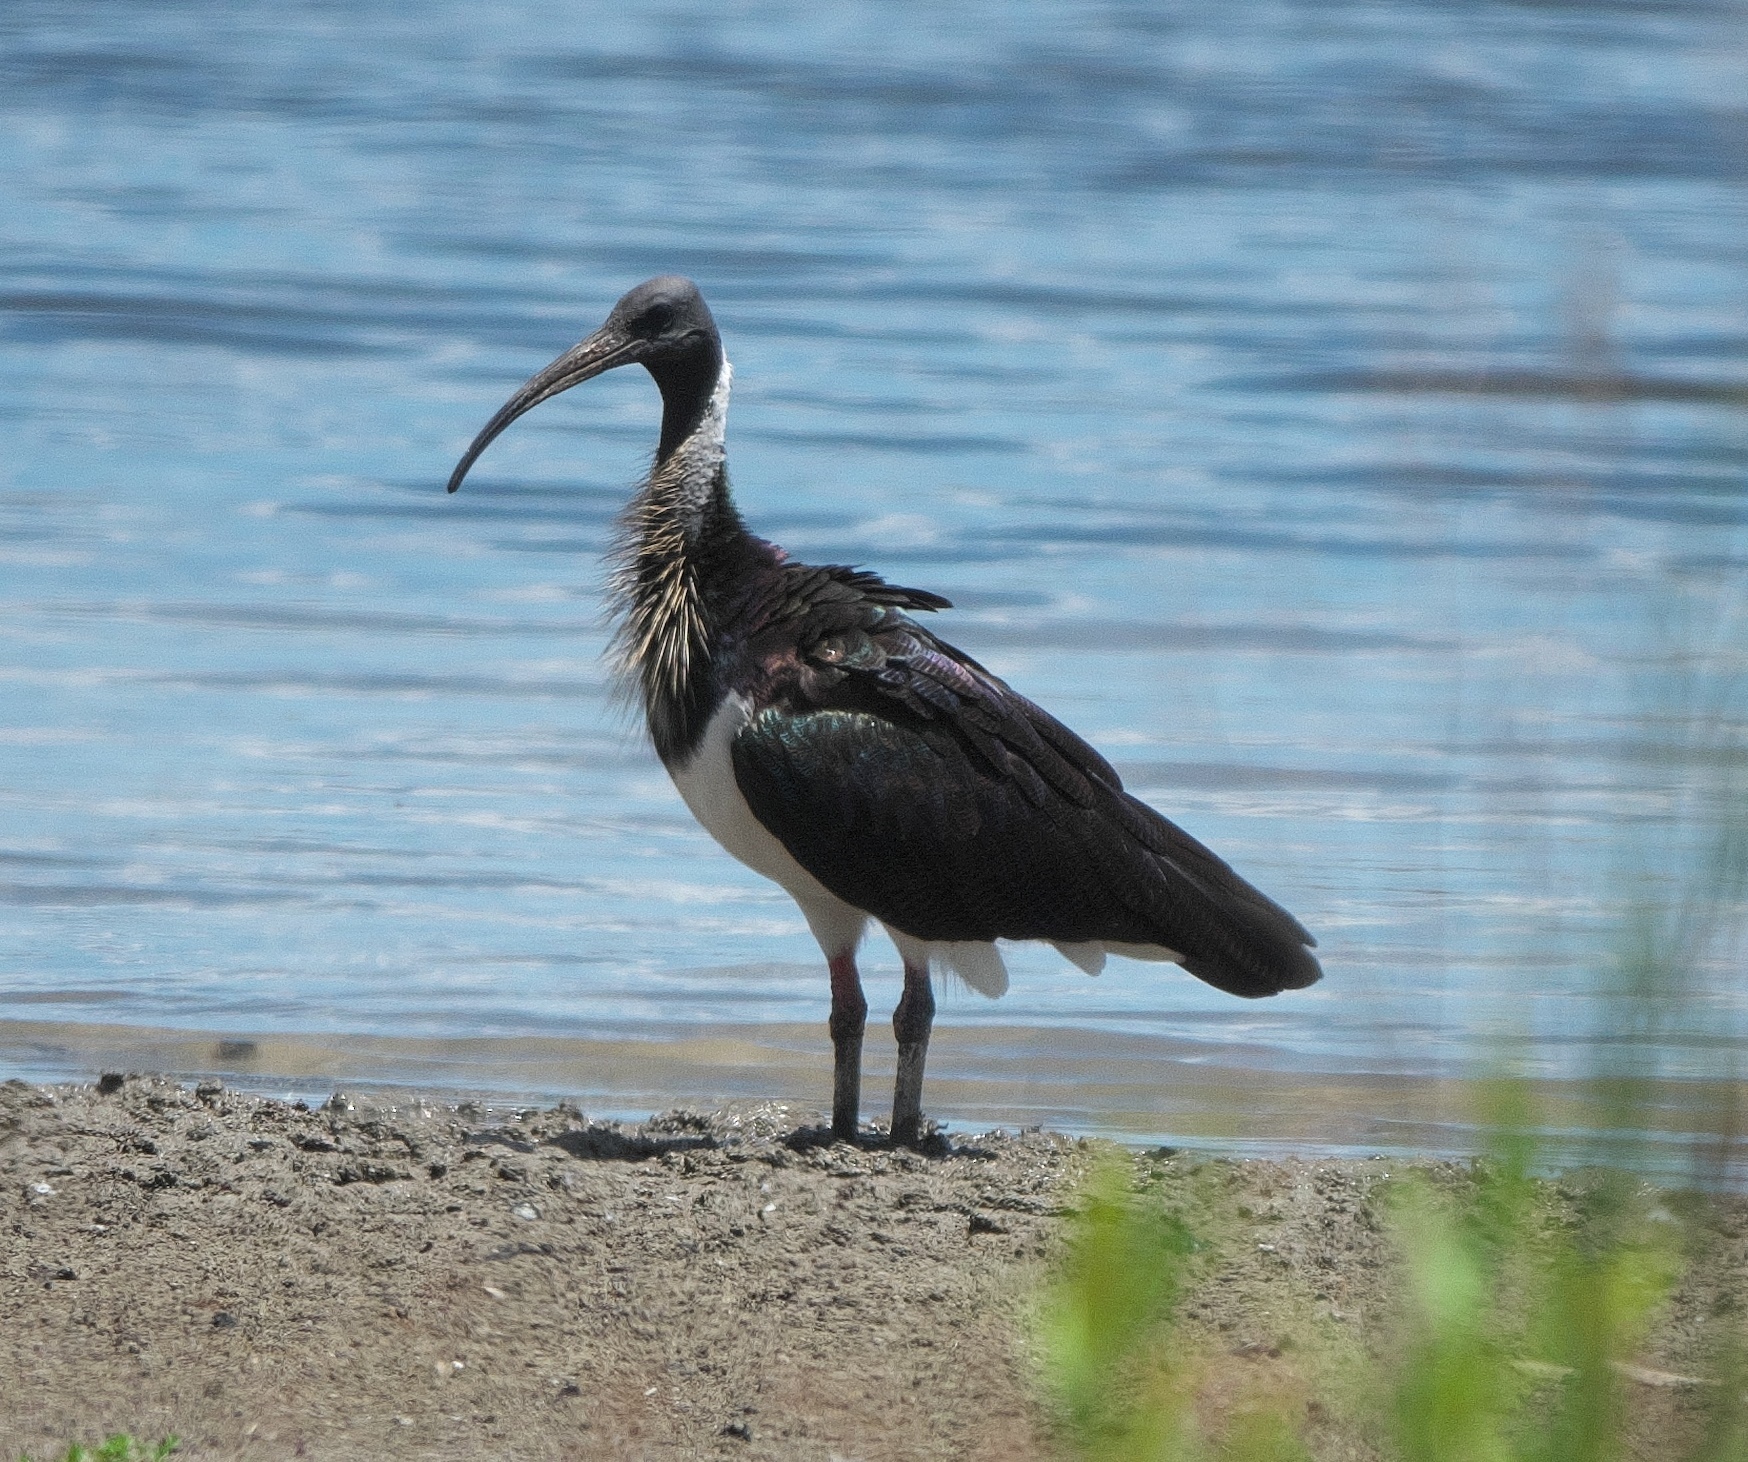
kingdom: Animalia
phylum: Chordata
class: Aves
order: Pelecaniformes
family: Threskiornithidae
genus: Threskiornis
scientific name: Threskiornis spinicollis
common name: Straw-necked ibis
